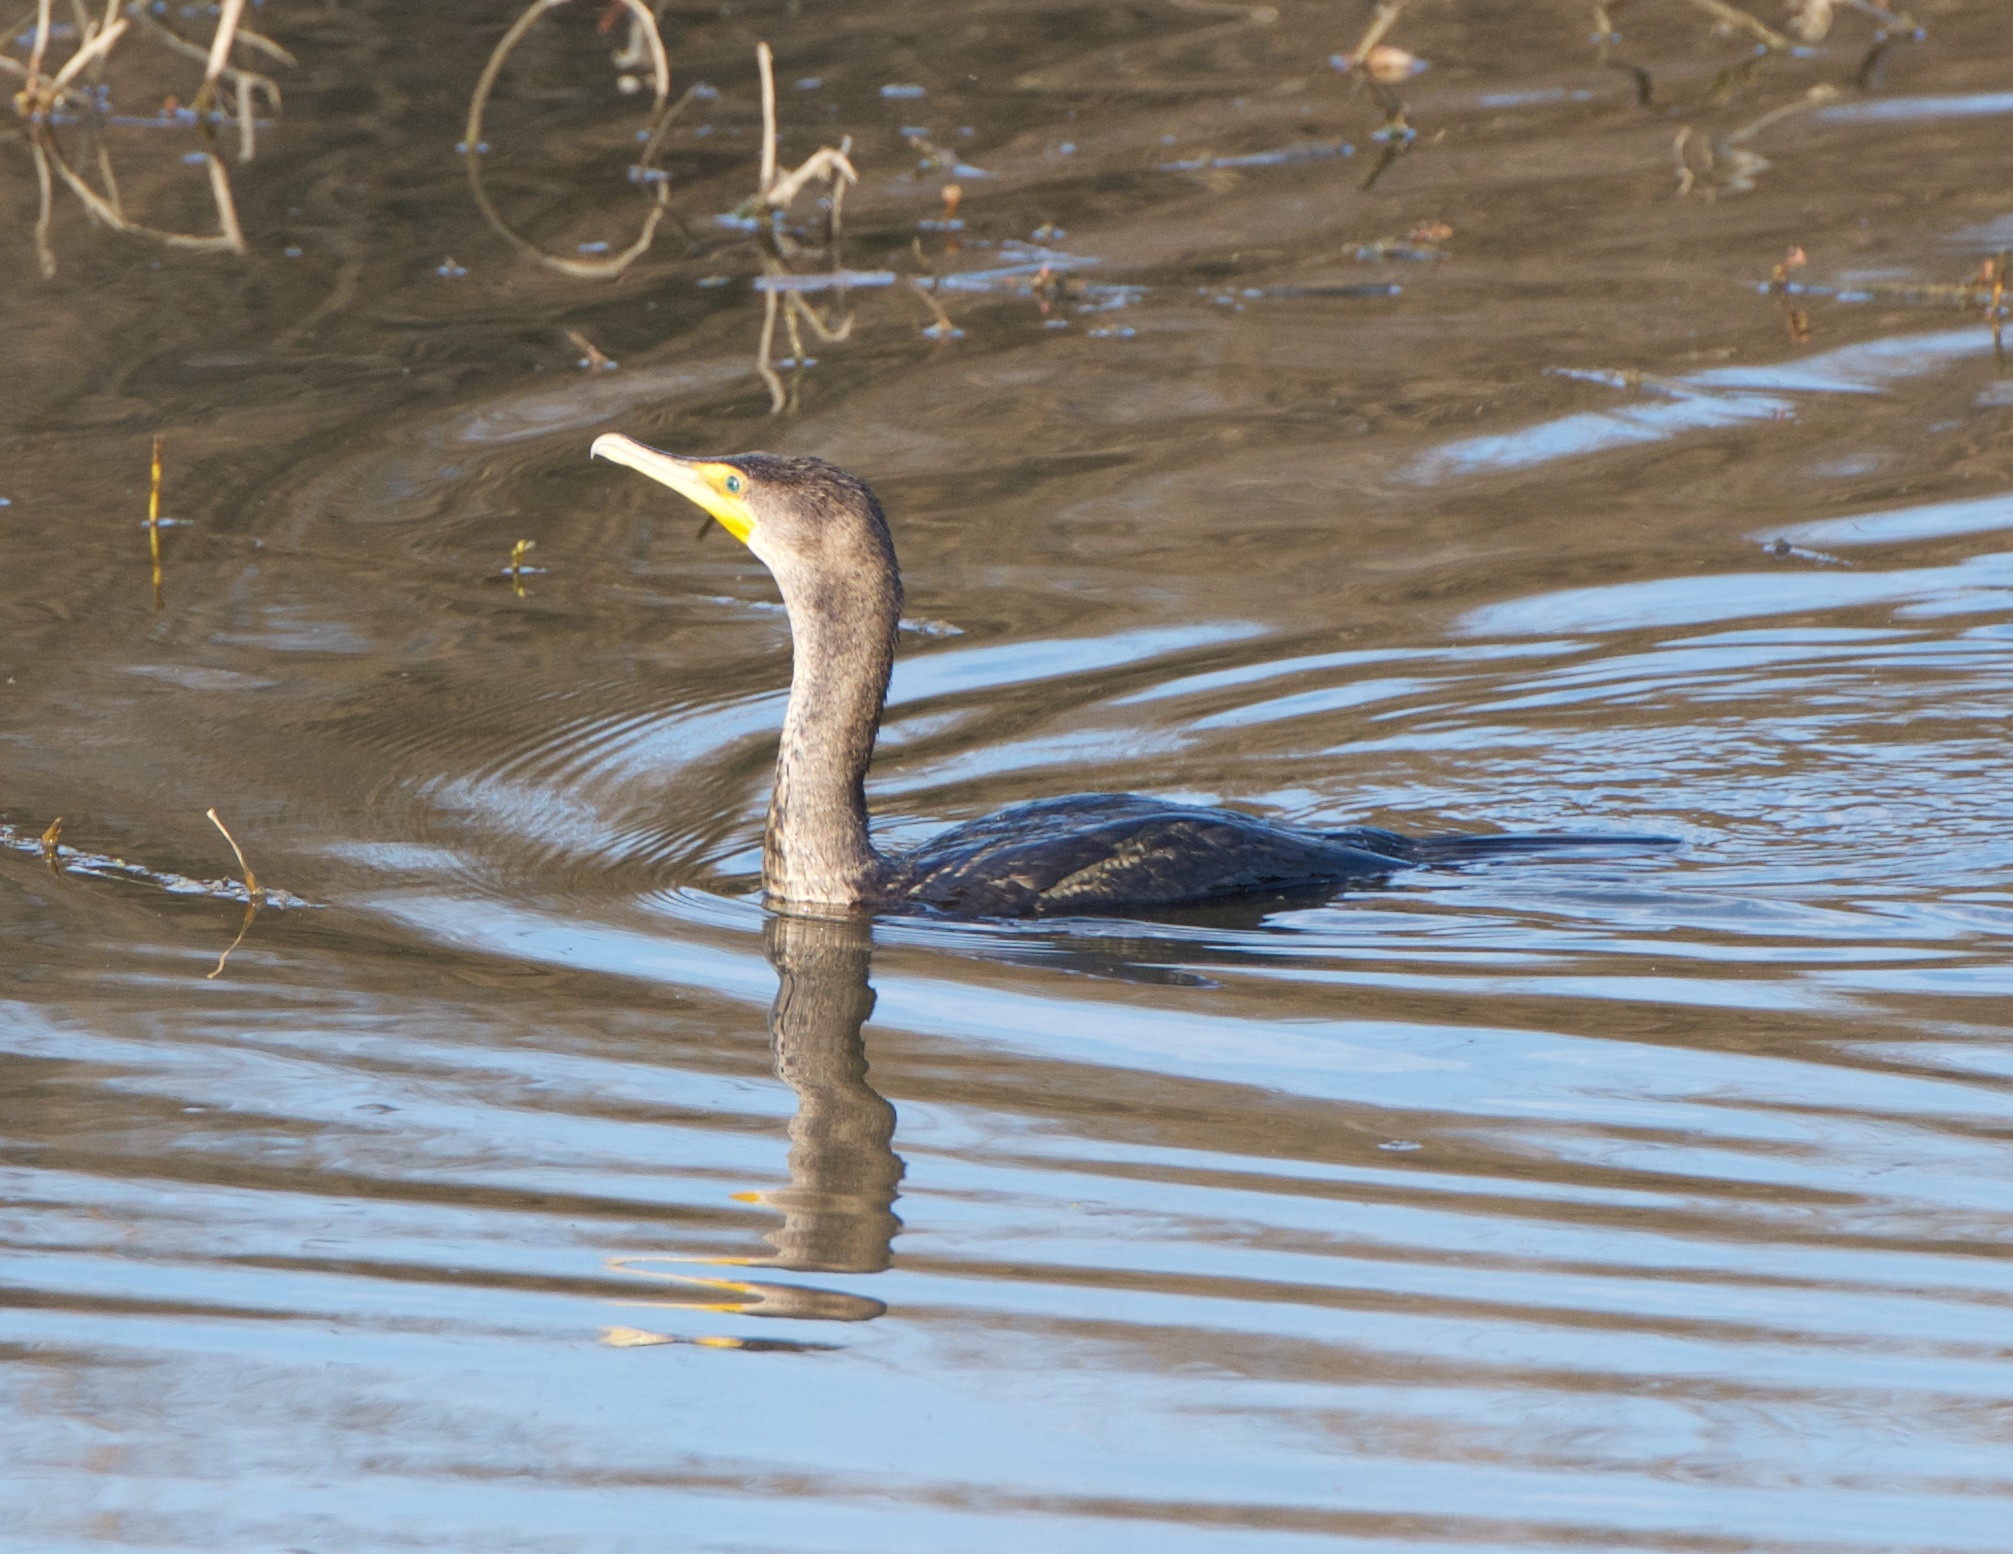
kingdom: Animalia
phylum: Chordata
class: Aves
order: Suliformes
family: Phalacrocoracidae
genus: Phalacrocorax
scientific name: Phalacrocorax auritus
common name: Double-crested cormorant
